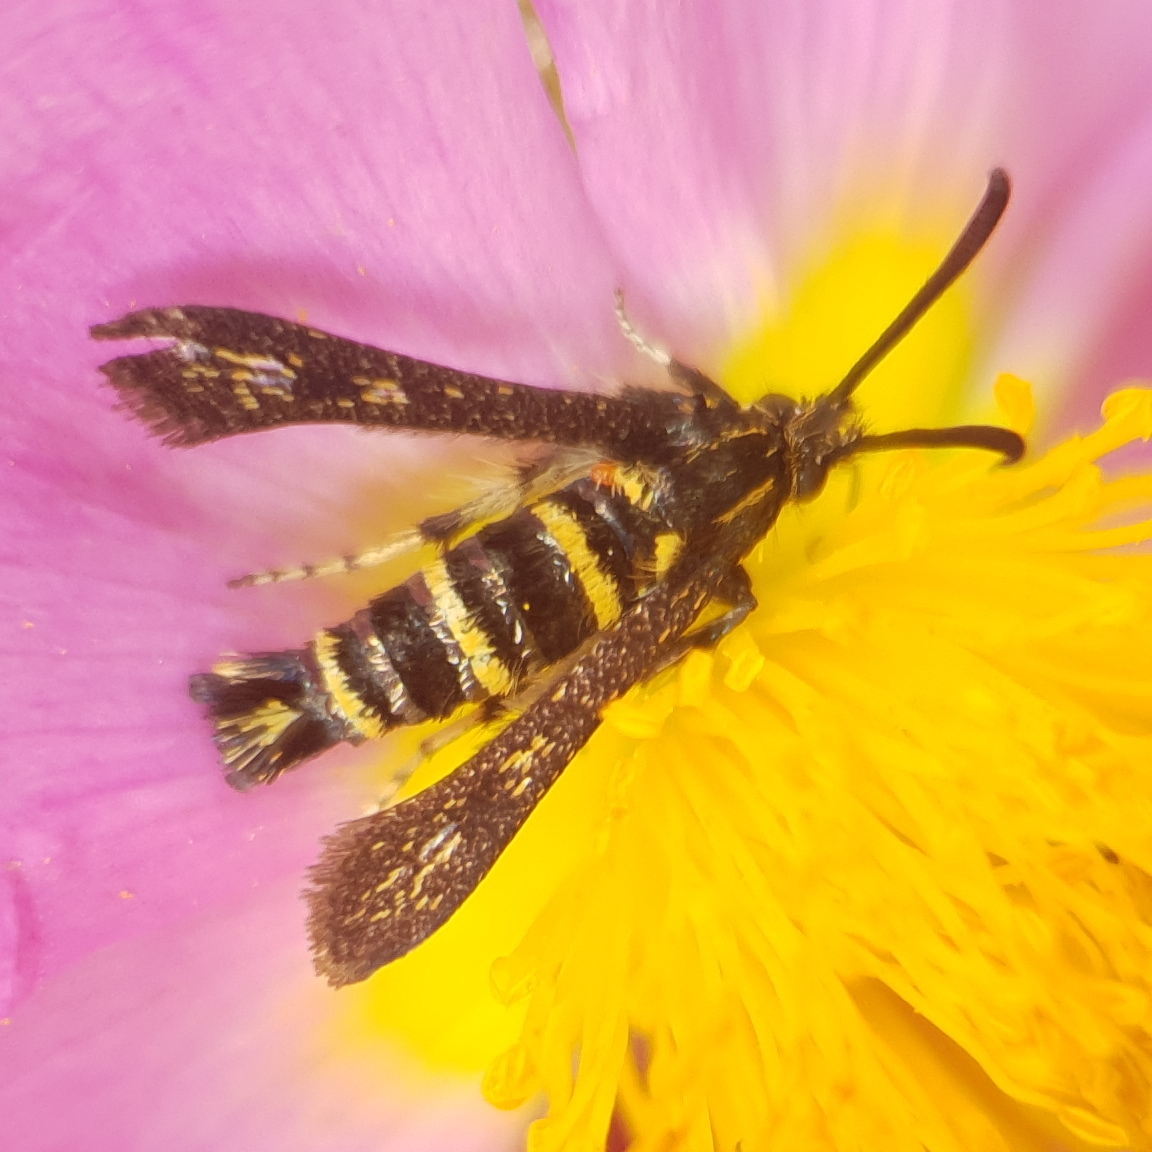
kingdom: Animalia
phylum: Arthropoda
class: Insecta
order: Lepidoptera
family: Sesiidae
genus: Sazonia
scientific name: Sazonia fenusaeformis
